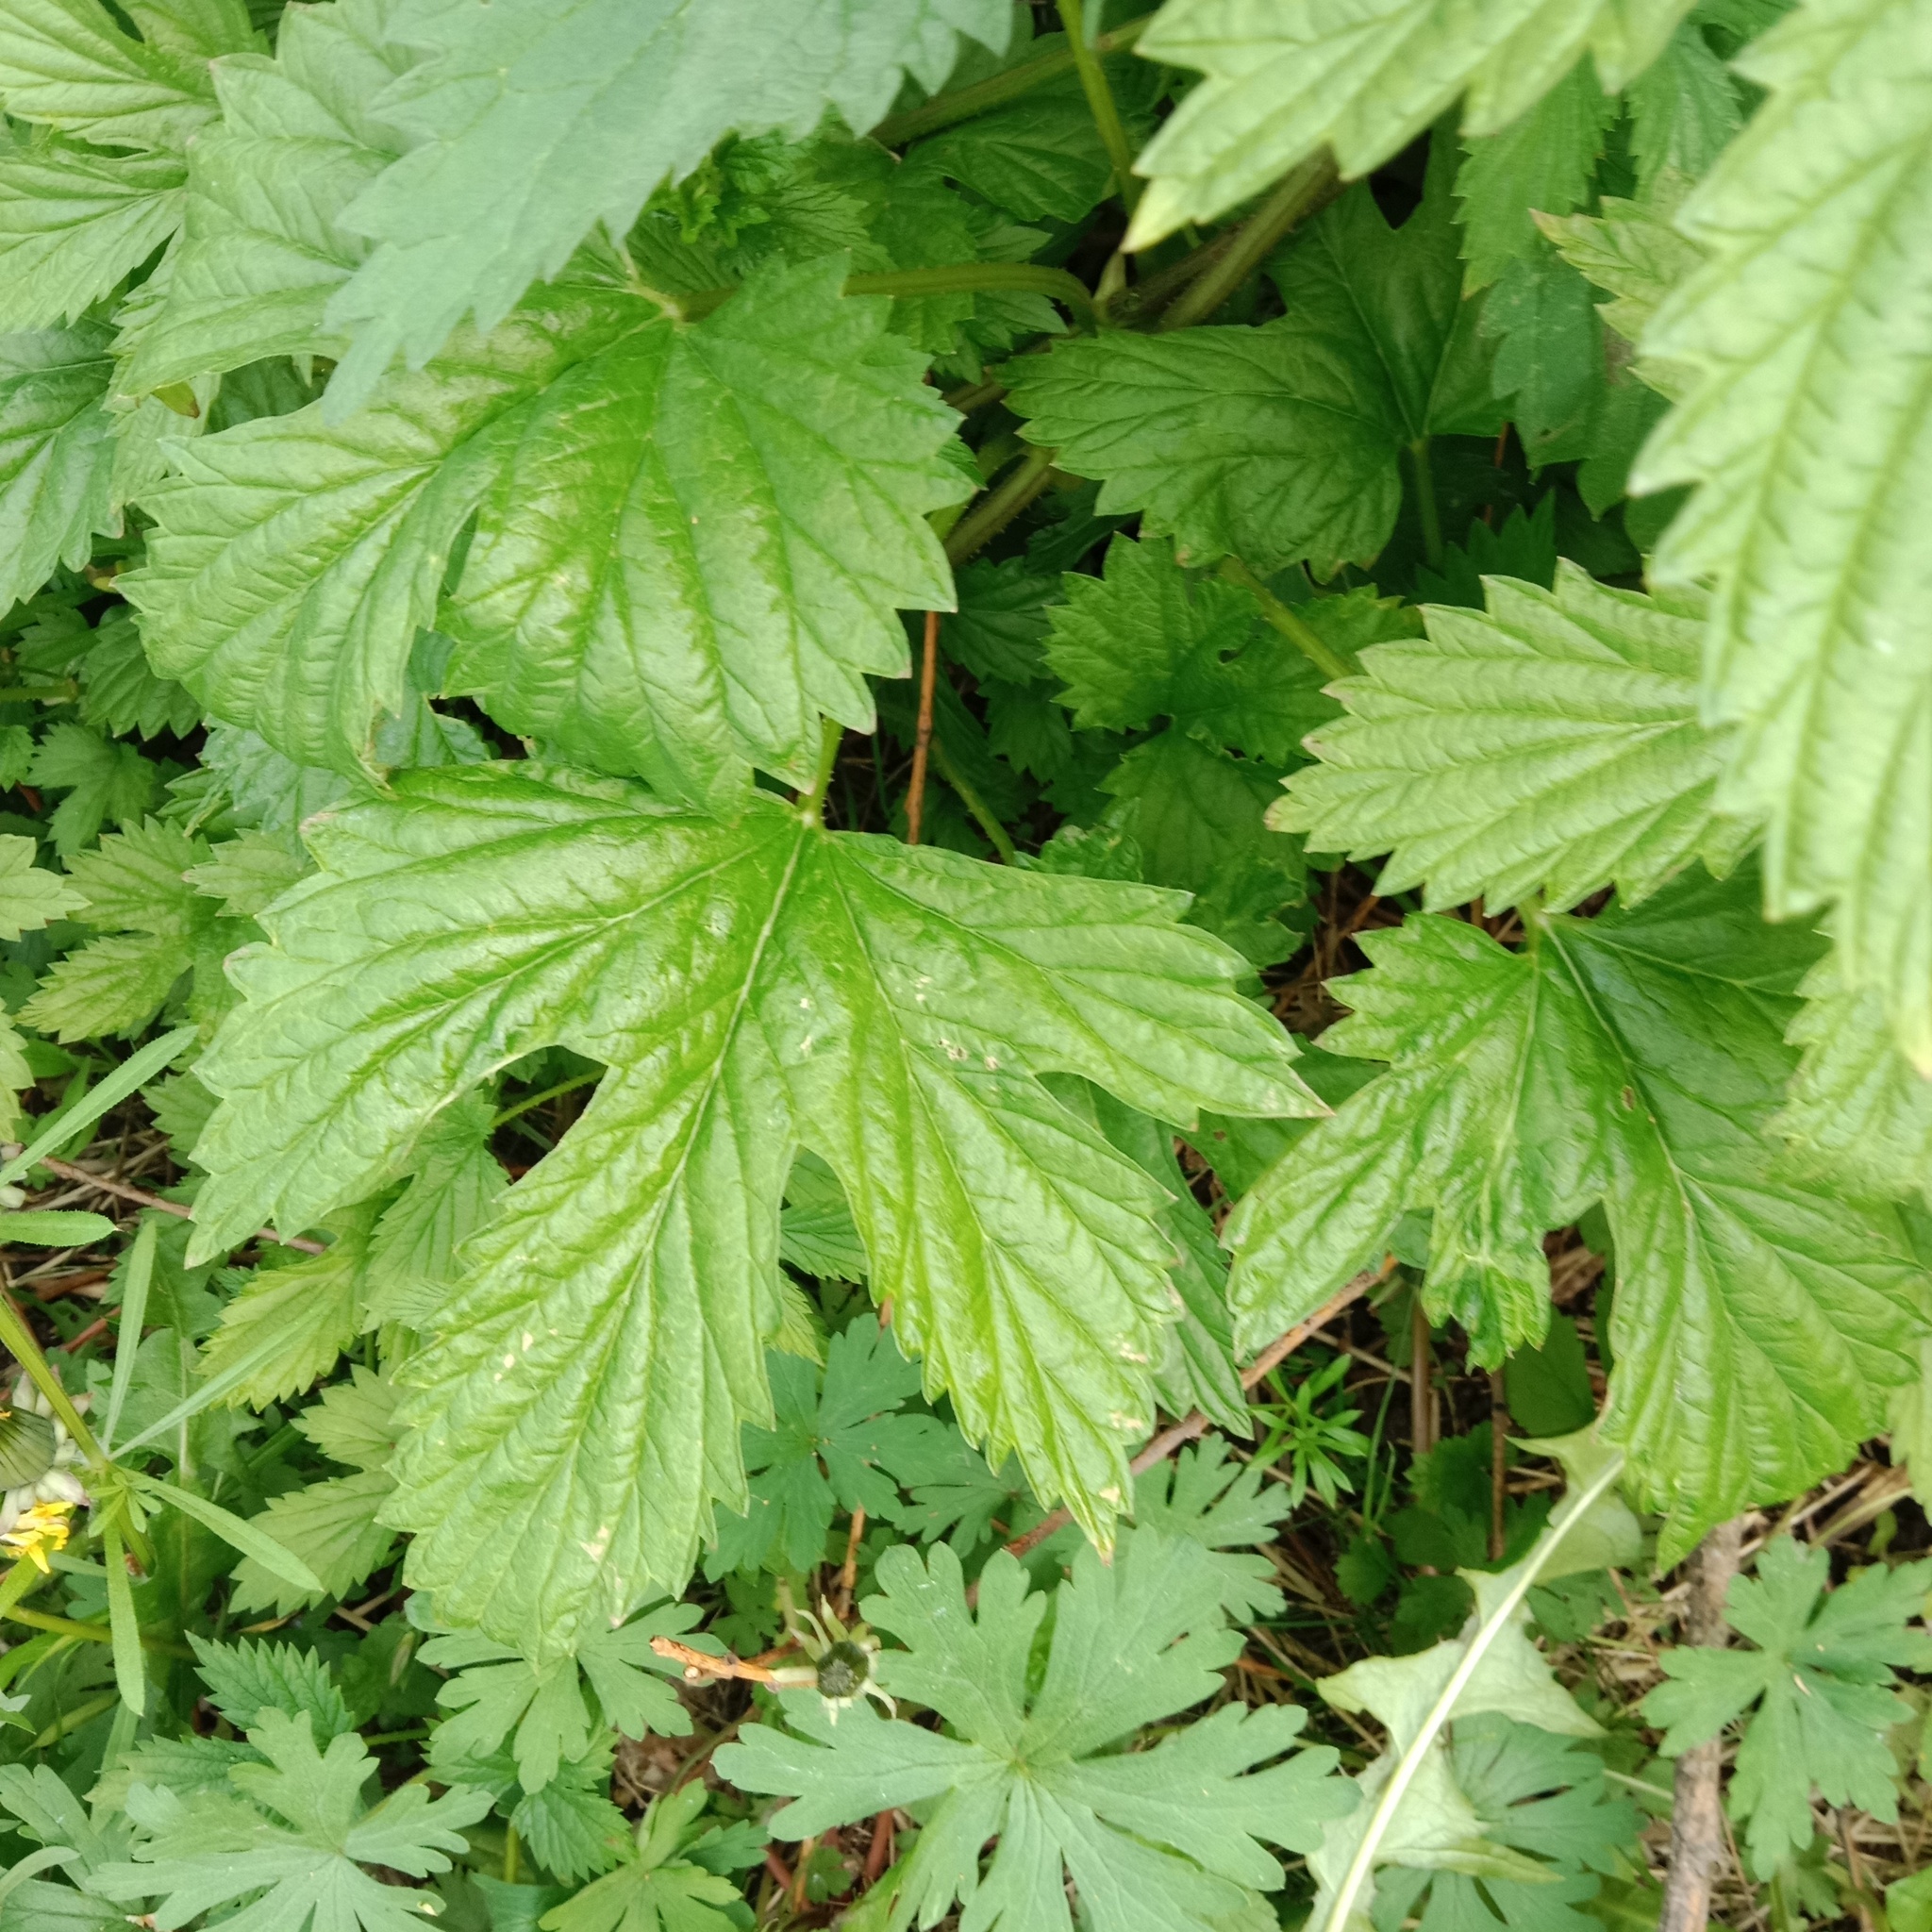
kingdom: Plantae
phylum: Tracheophyta
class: Magnoliopsida
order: Rosales
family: Cannabaceae
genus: Humulus
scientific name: Humulus lupulus
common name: Hop
